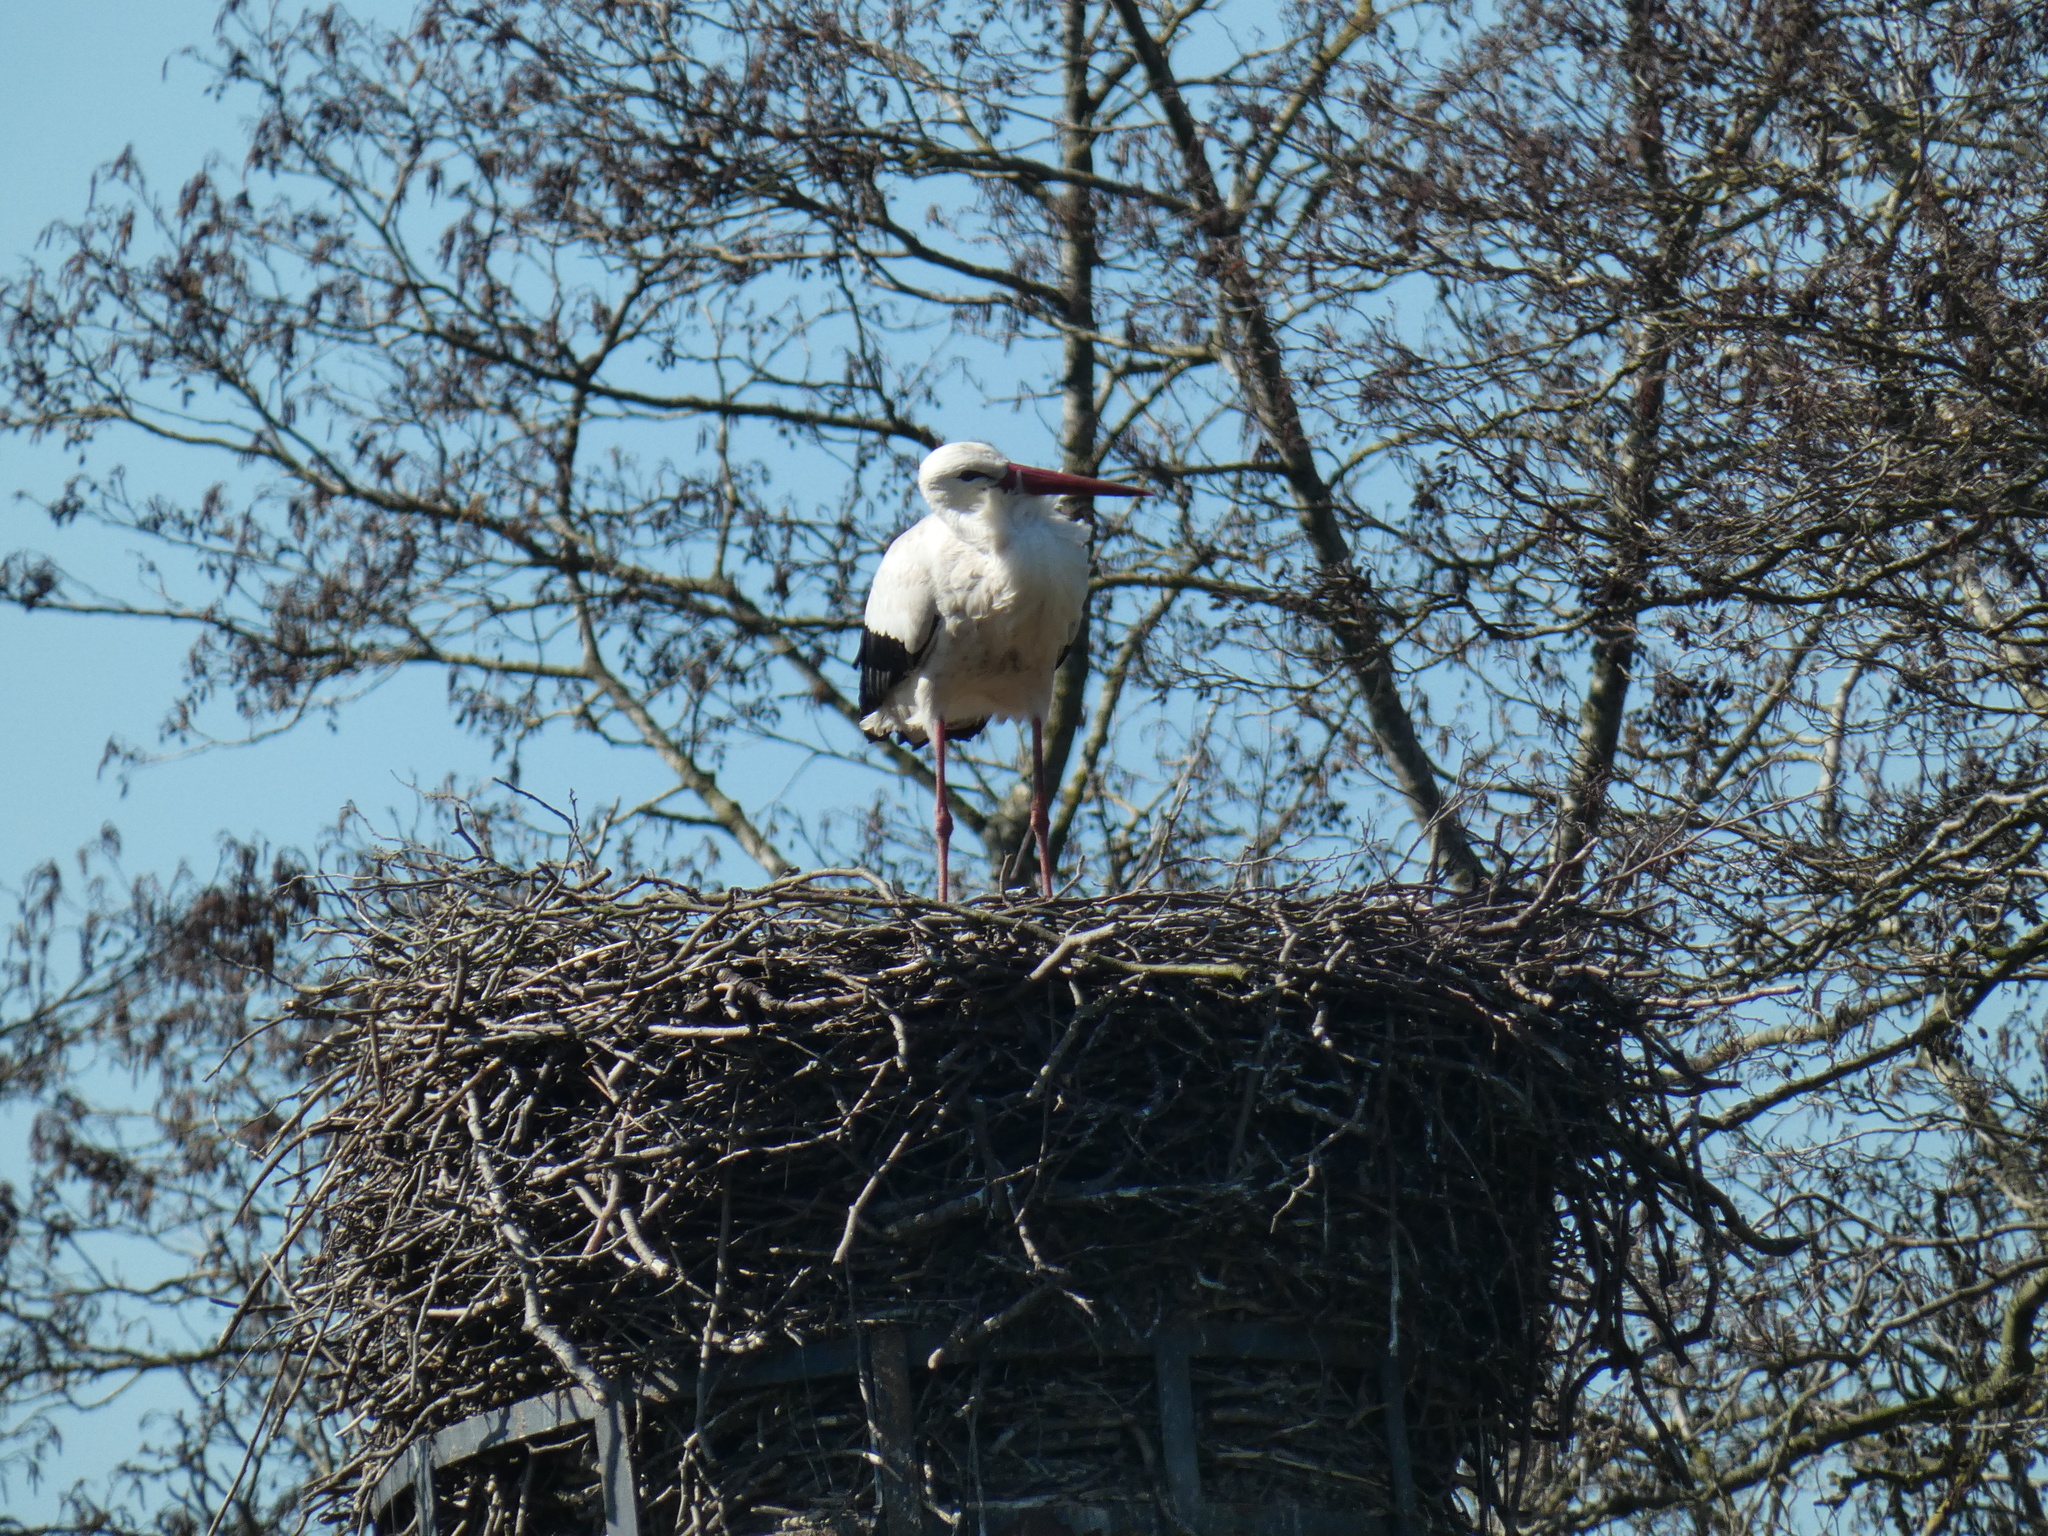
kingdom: Animalia
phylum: Chordata
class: Aves
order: Ciconiiformes
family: Ciconiidae
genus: Ciconia
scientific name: Ciconia ciconia
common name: White stork
